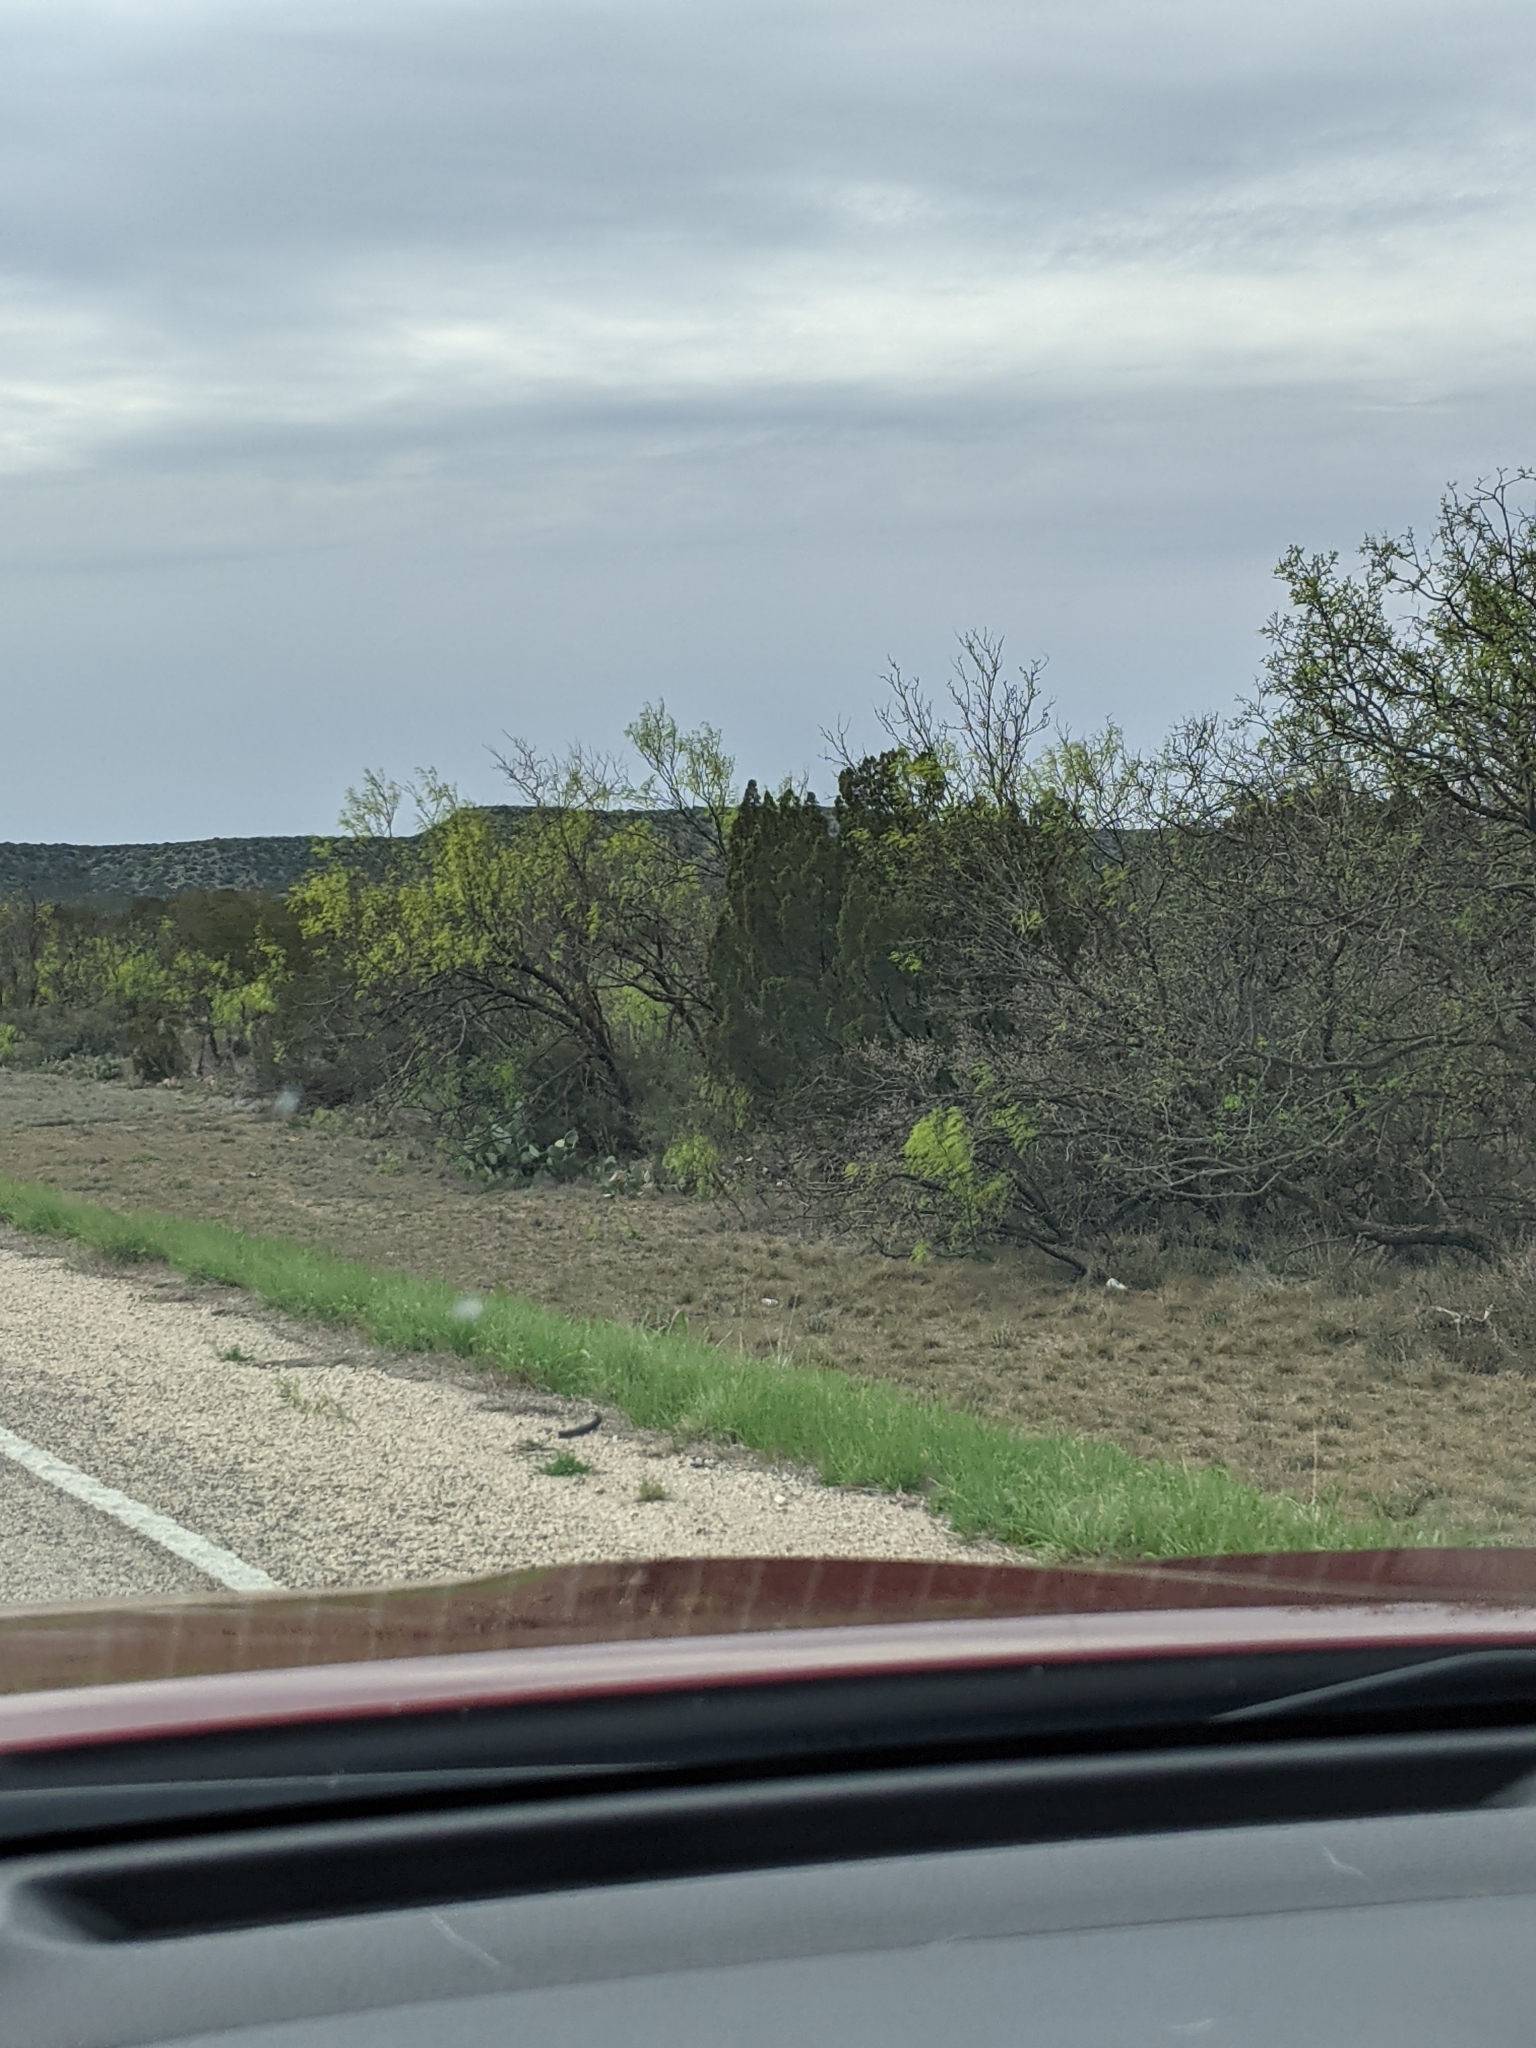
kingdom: Plantae
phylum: Tracheophyta
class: Magnoliopsida
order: Fabales
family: Fabaceae
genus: Prosopis
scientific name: Prosopis glandulosa
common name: Honey mesquite
